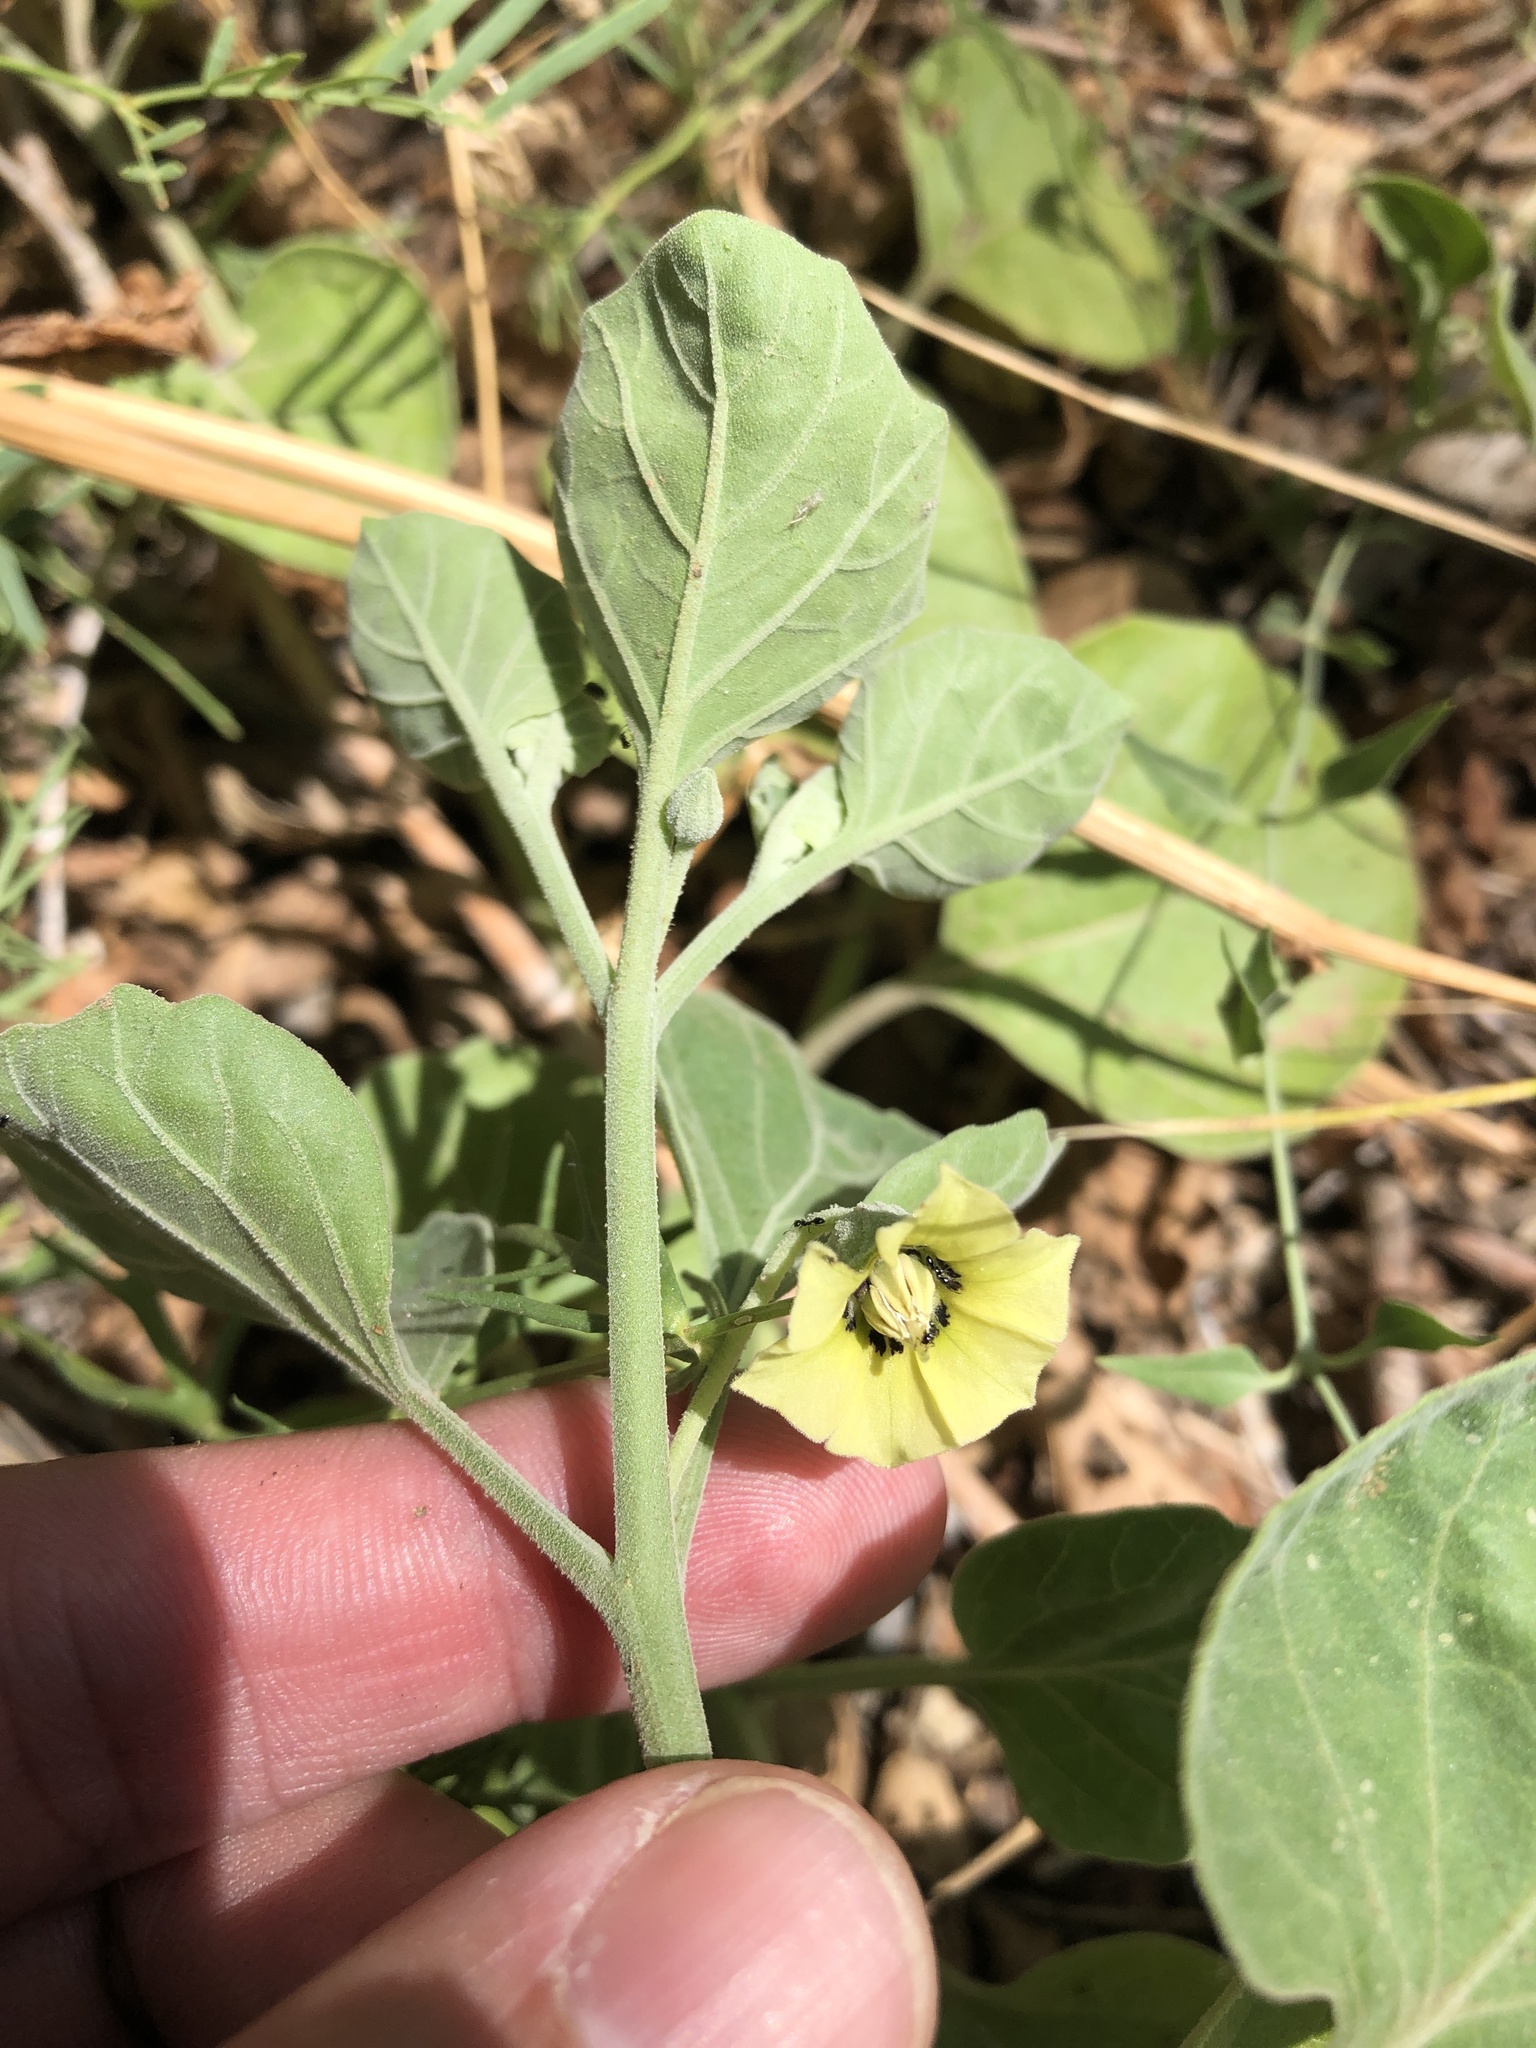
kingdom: Plantae
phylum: Tracheophyta
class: Magnoliopsida
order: Solanales
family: Solanaceae
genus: Physalis
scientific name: Physalis cinerascens
